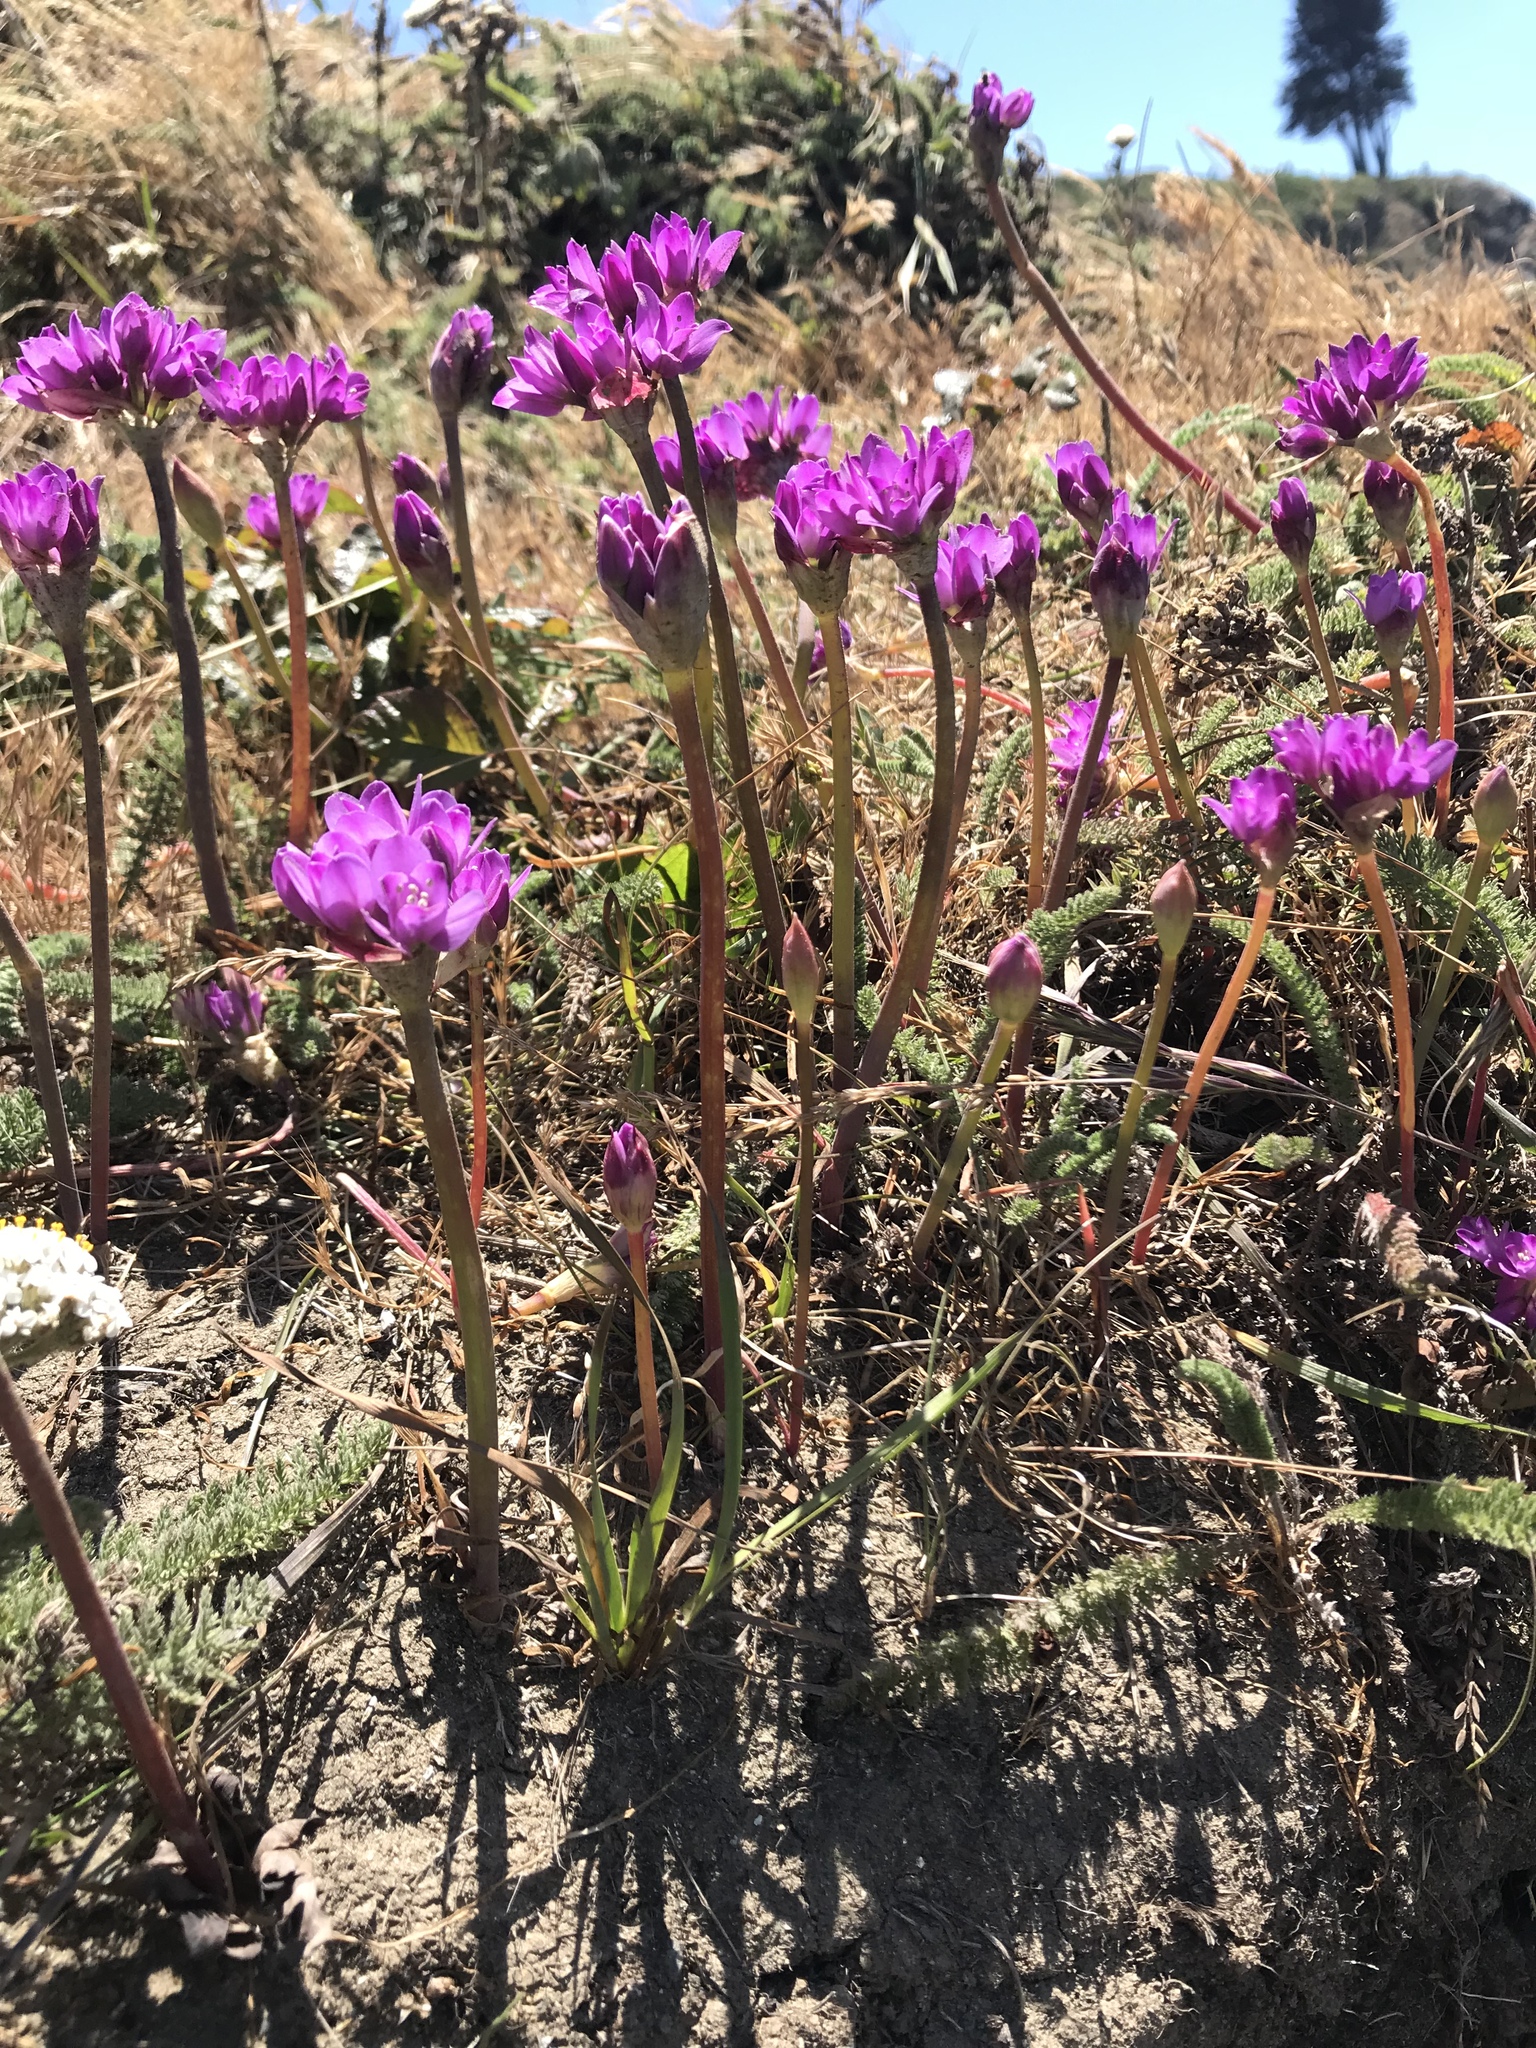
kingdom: Plantae
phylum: Tracheophyta
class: Liliopsida
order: Asparagales
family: Amaryllidaceae
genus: Allium
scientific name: Allium dichlamydeum
